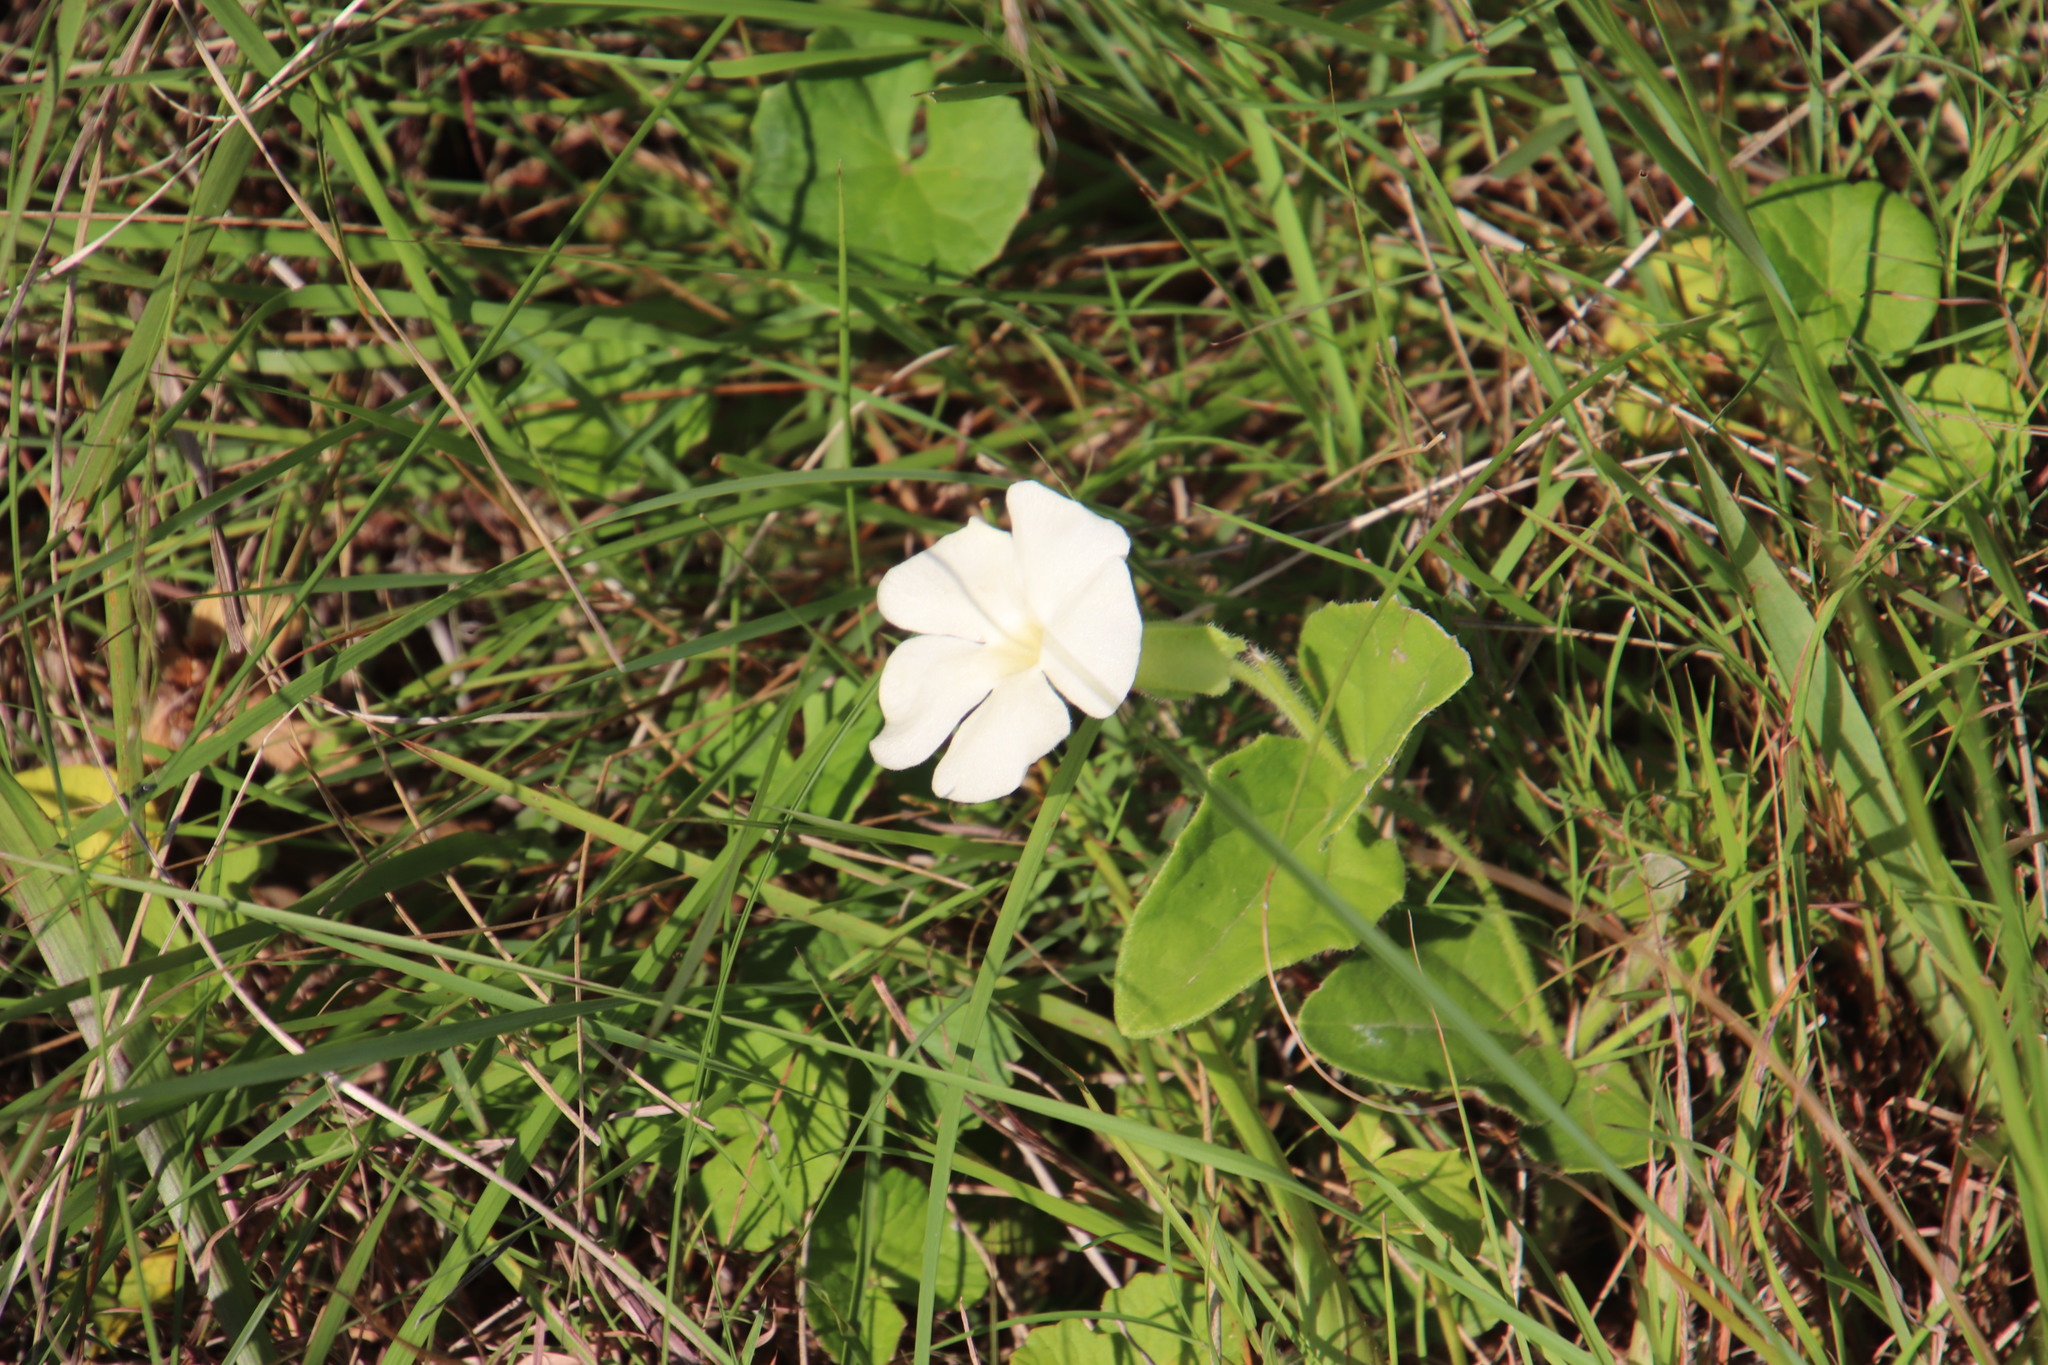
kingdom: Plantae
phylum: Tracheophyta
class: Magnoliopsida
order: Lamiales
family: Acanthaceae
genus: Thunbergia
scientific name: Thunbergia atriplicifolia
